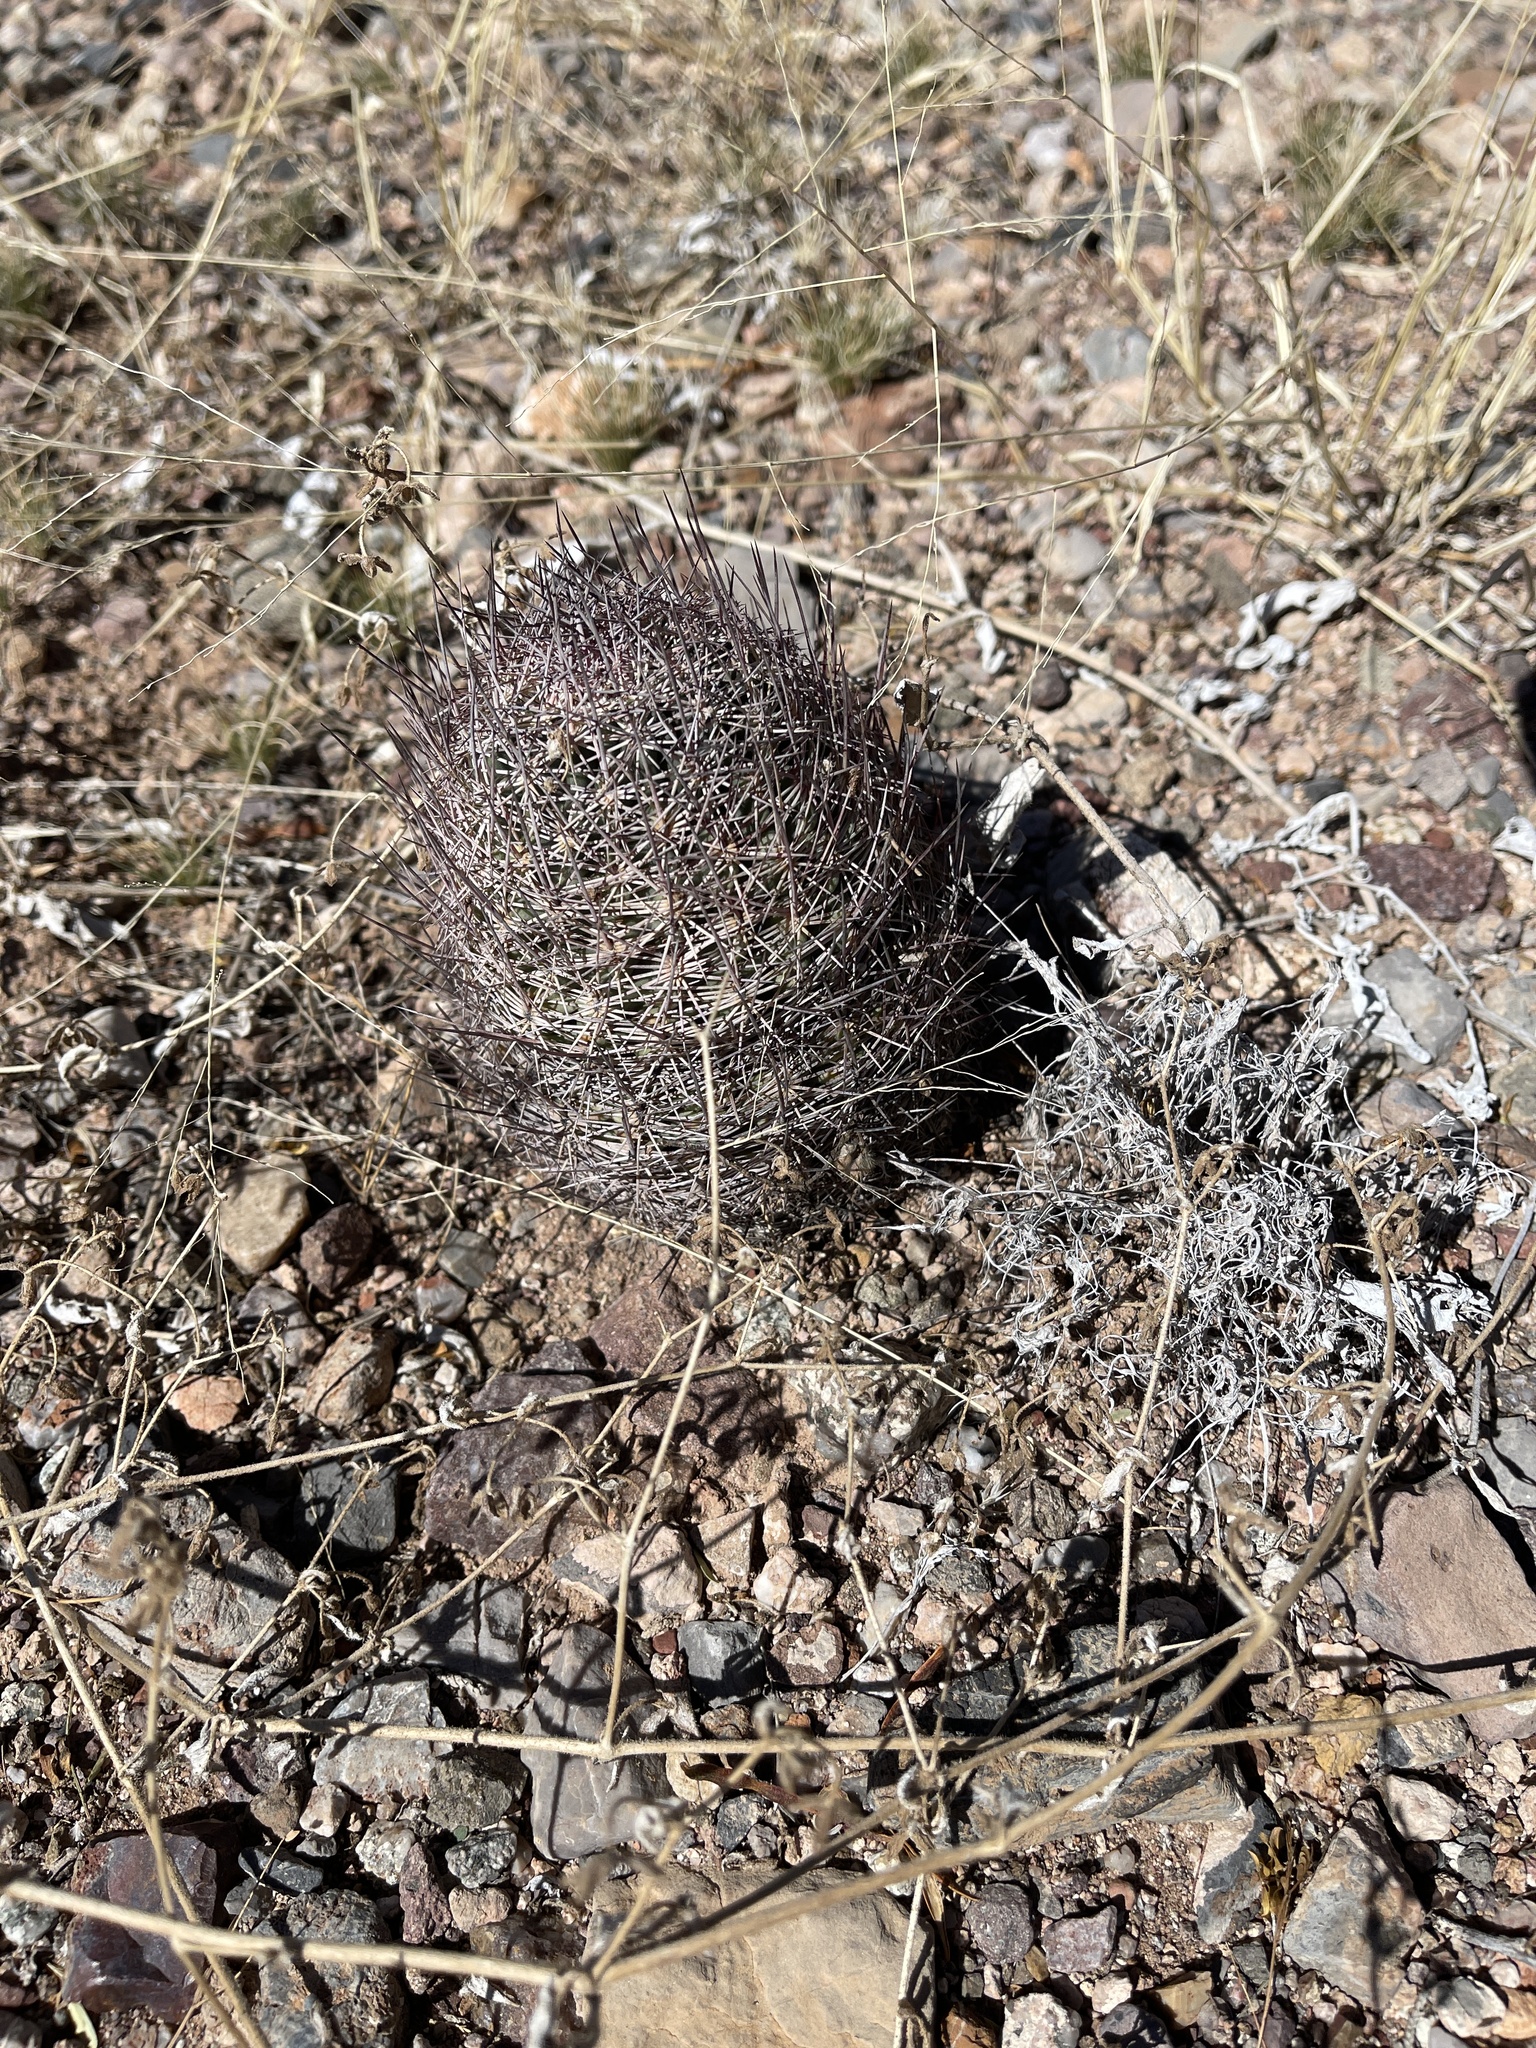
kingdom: Plantae
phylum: Tracheophyta
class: Magnoliopsida
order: Caryophyllales
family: Cactaceae
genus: Sclerocactus
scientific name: Sclerocactus johnsonii
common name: Eight-spine fishhook cactus
